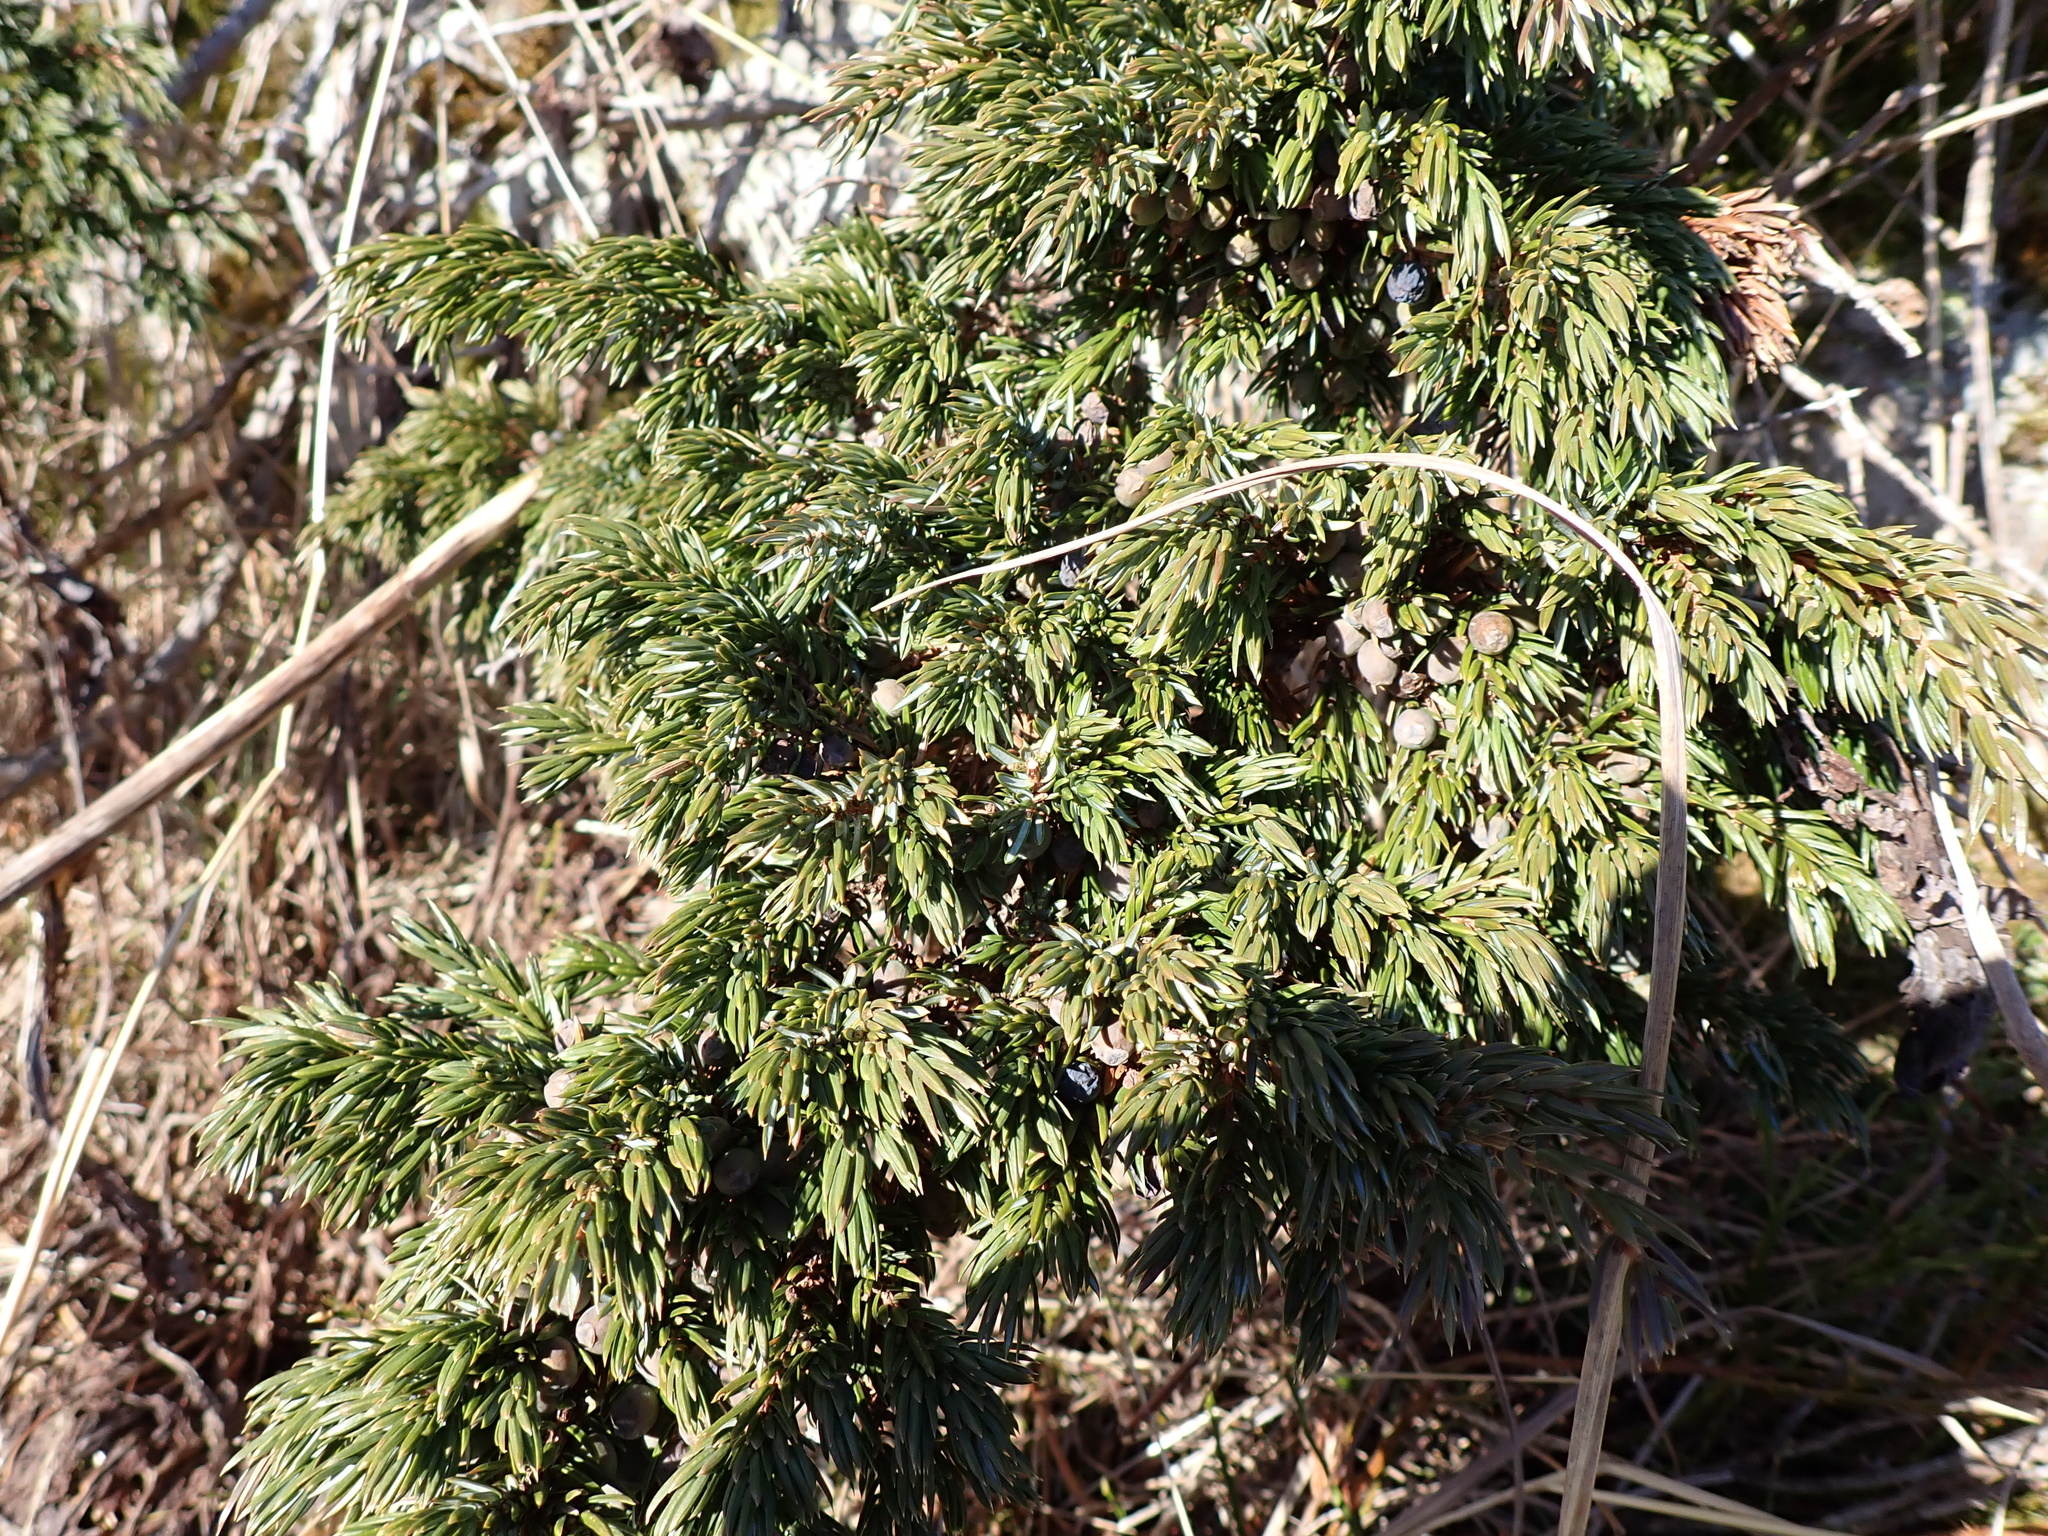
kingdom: Plantae
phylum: Tracheophyta
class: Pinopsida
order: Pinales
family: Cupressaceae
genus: Juniperus
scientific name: Juniperus communis
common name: Common juniper
